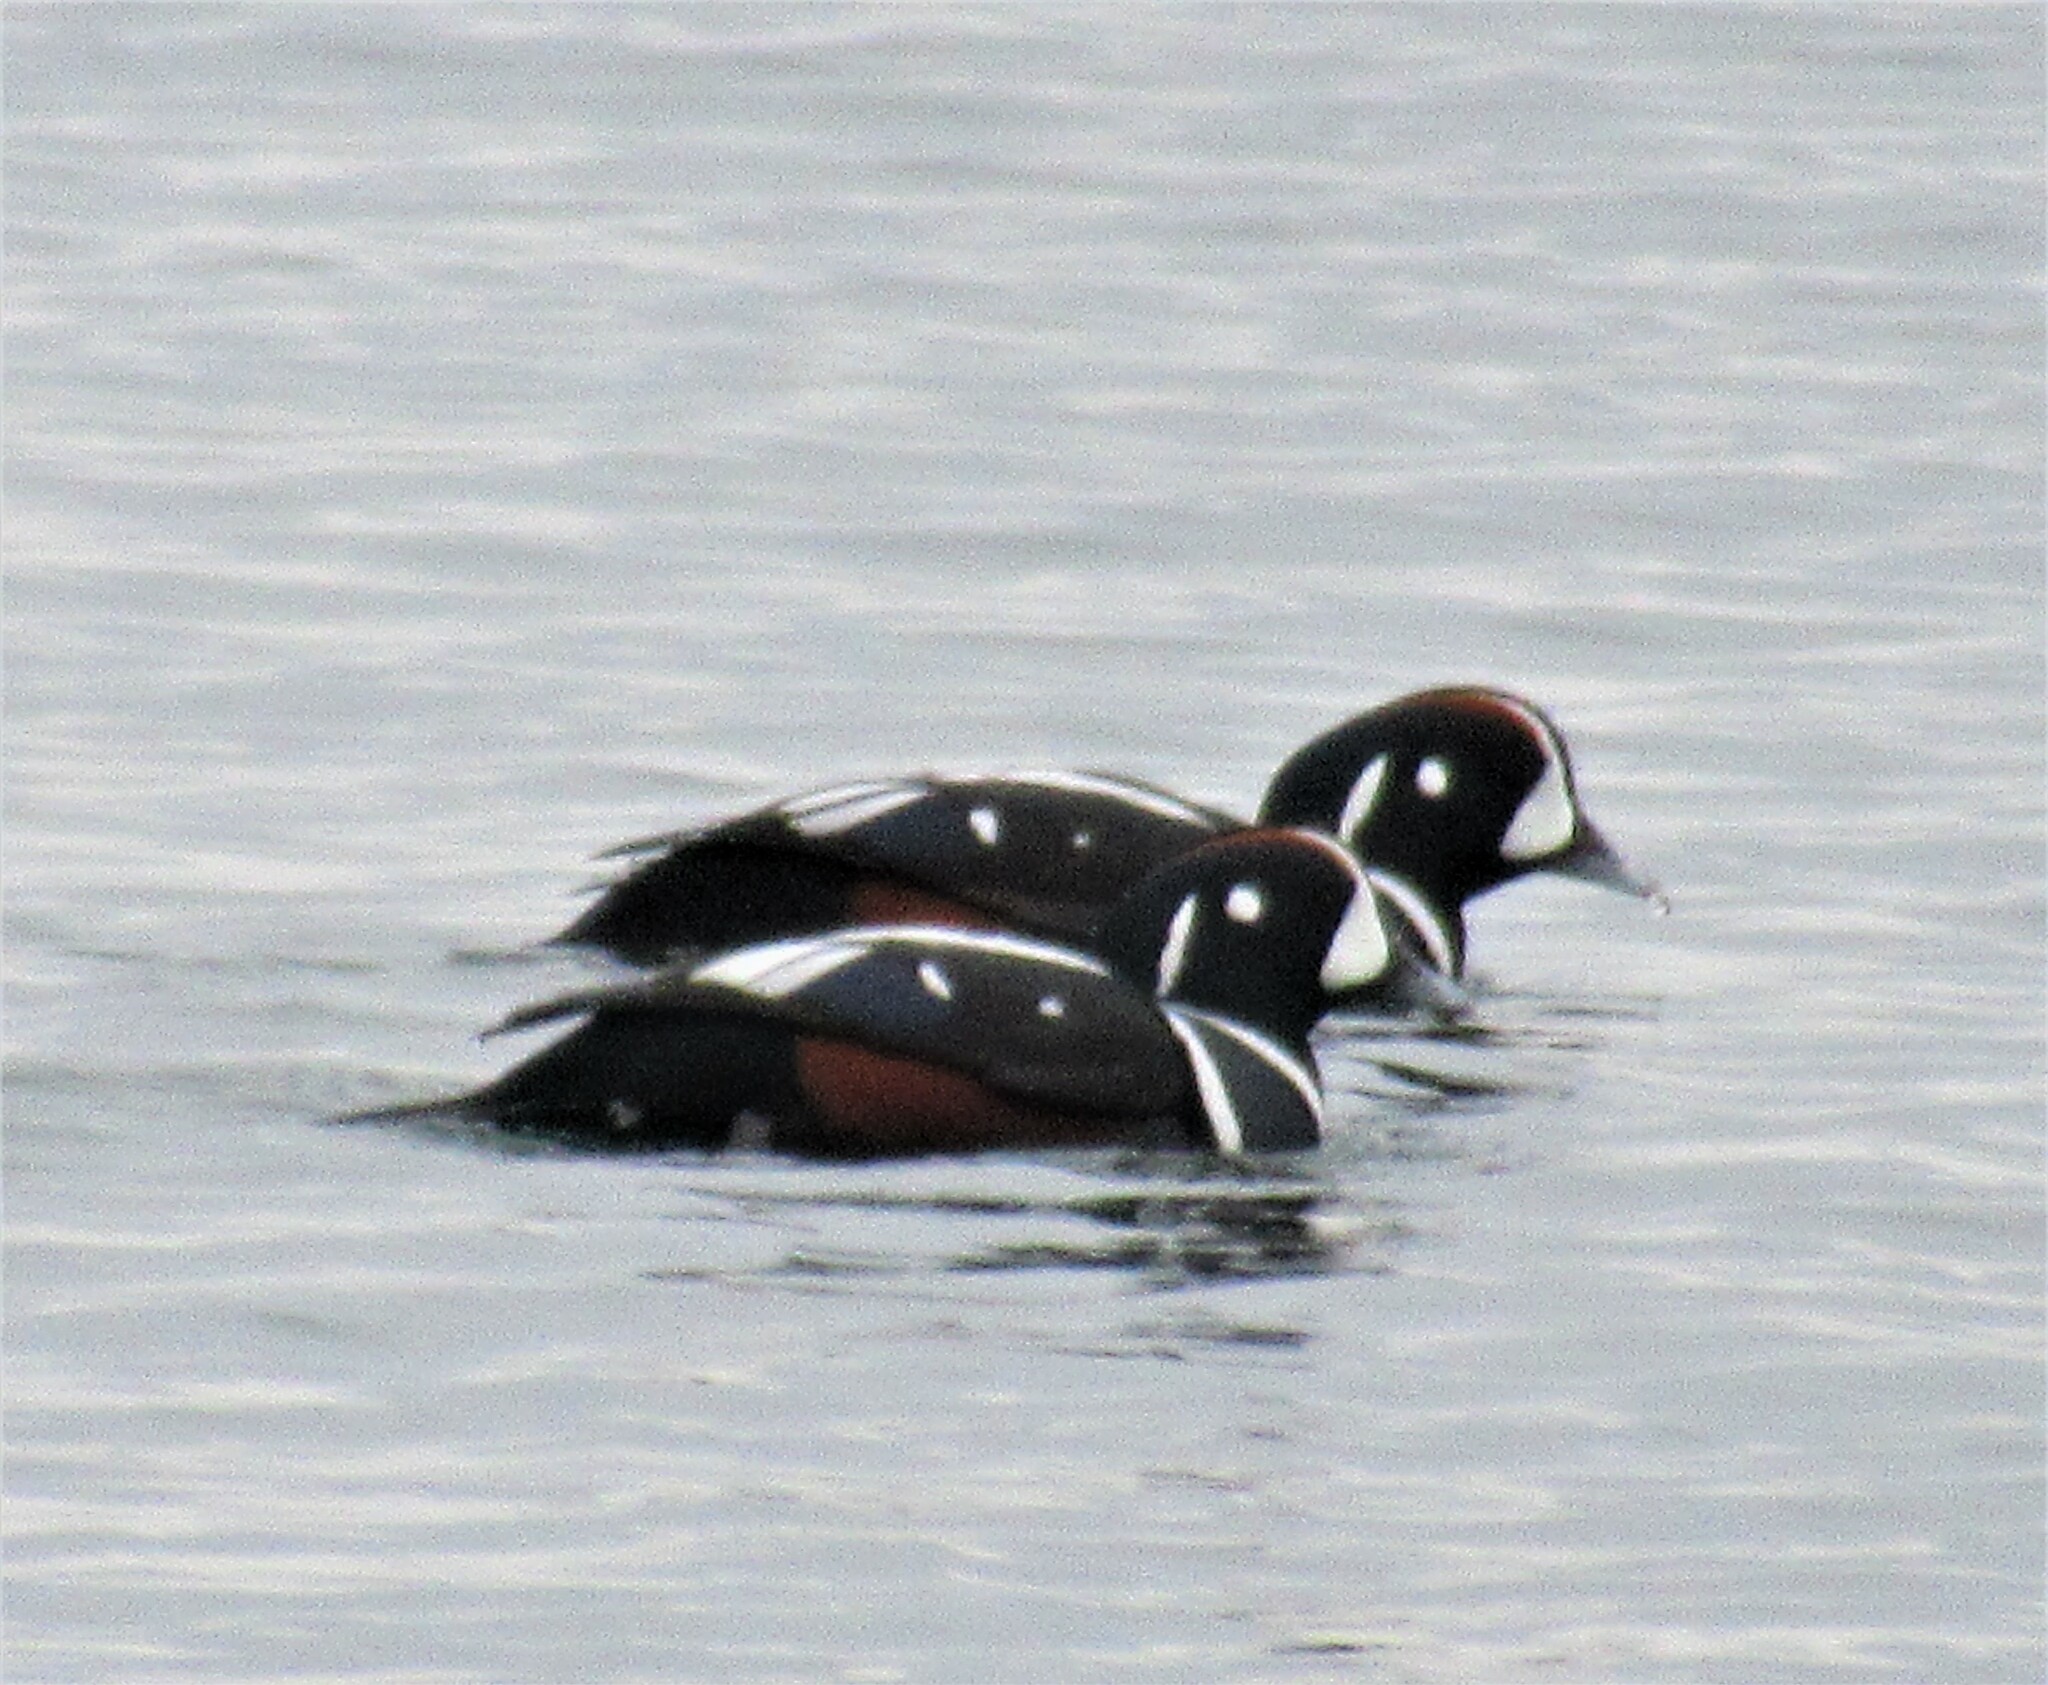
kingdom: Animalia
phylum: Chordata
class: Aves
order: Anseriformes
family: Anatidae
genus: Histrionicus
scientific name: Histrionicus histrionicus
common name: Harlequin duck
